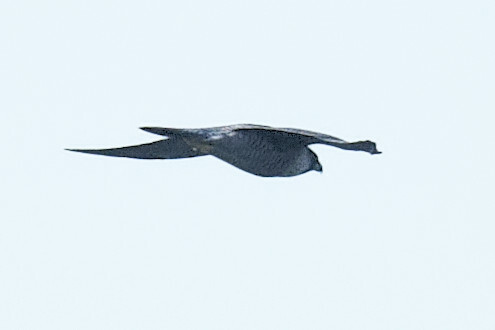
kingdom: Animalia
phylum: Chordata
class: Aves
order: Falconiformes
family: Falconidae
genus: Falco
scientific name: Falco peregrinus
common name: Peregrine falcon
